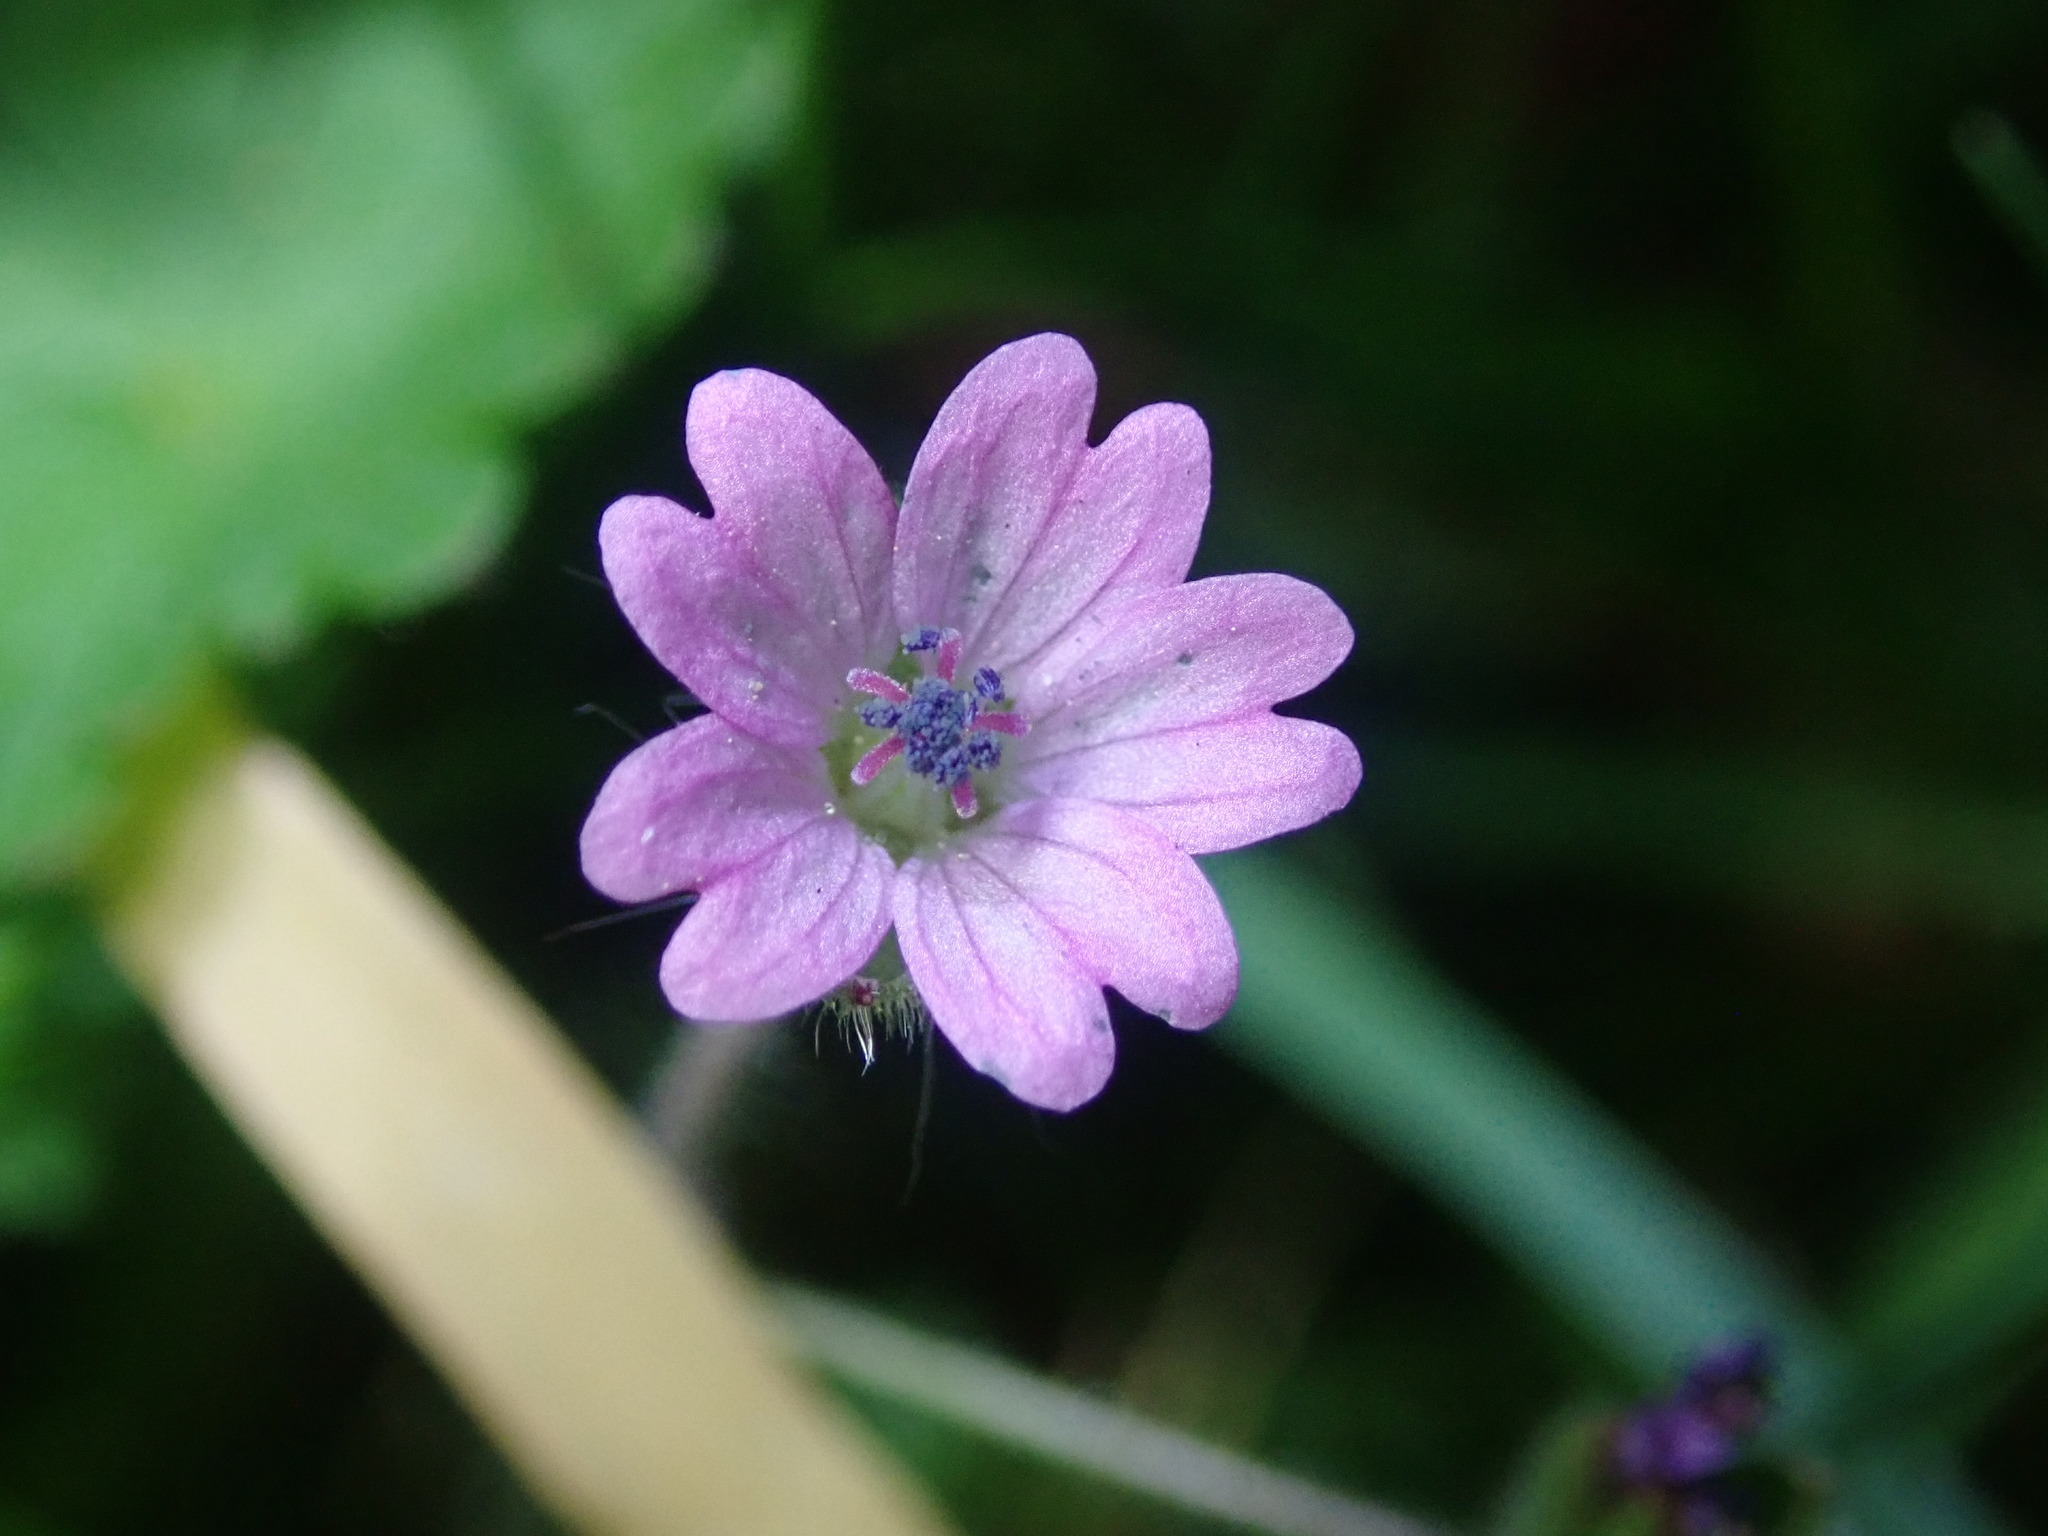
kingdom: Plantae
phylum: Tracheophyta
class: Magnoliopsida
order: Geraniales
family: Geraniaceae
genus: Geranium
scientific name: Geranium molle
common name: Dove's-foot crane's-bill
